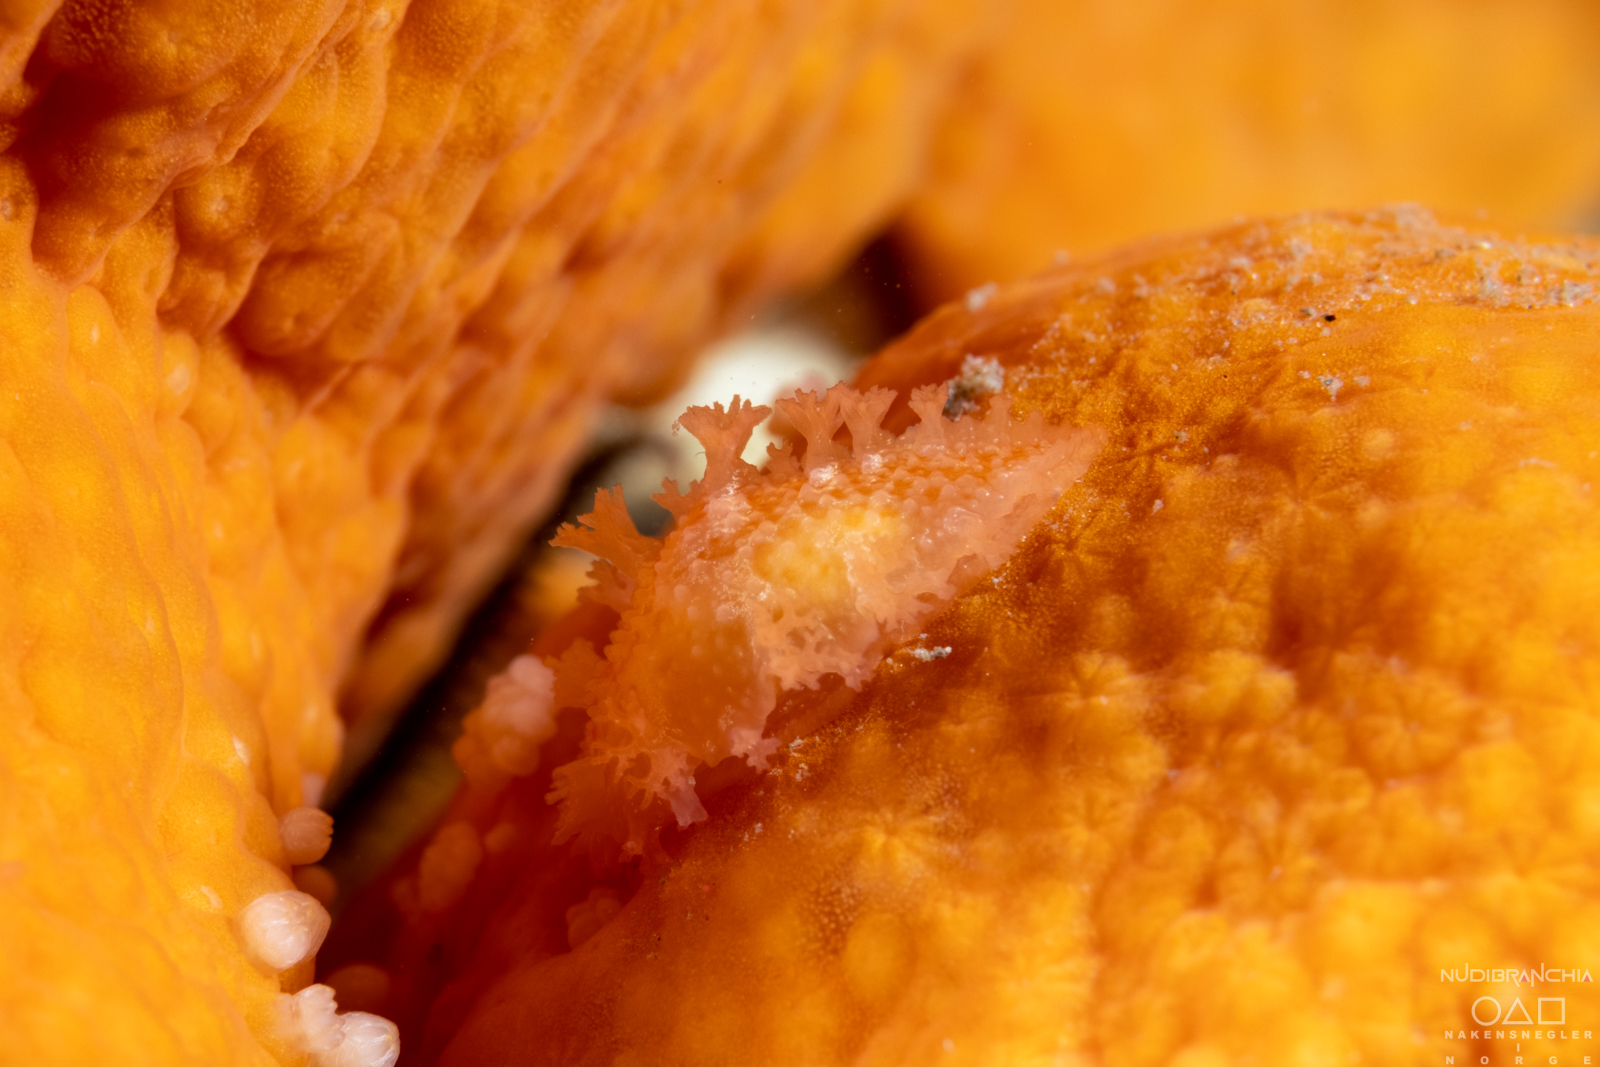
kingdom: Animalia
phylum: Mollusca
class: Gastropoda
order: Nudibranchia
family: Tritoniidae
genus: Tritonia
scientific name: Tritonia hombergii
